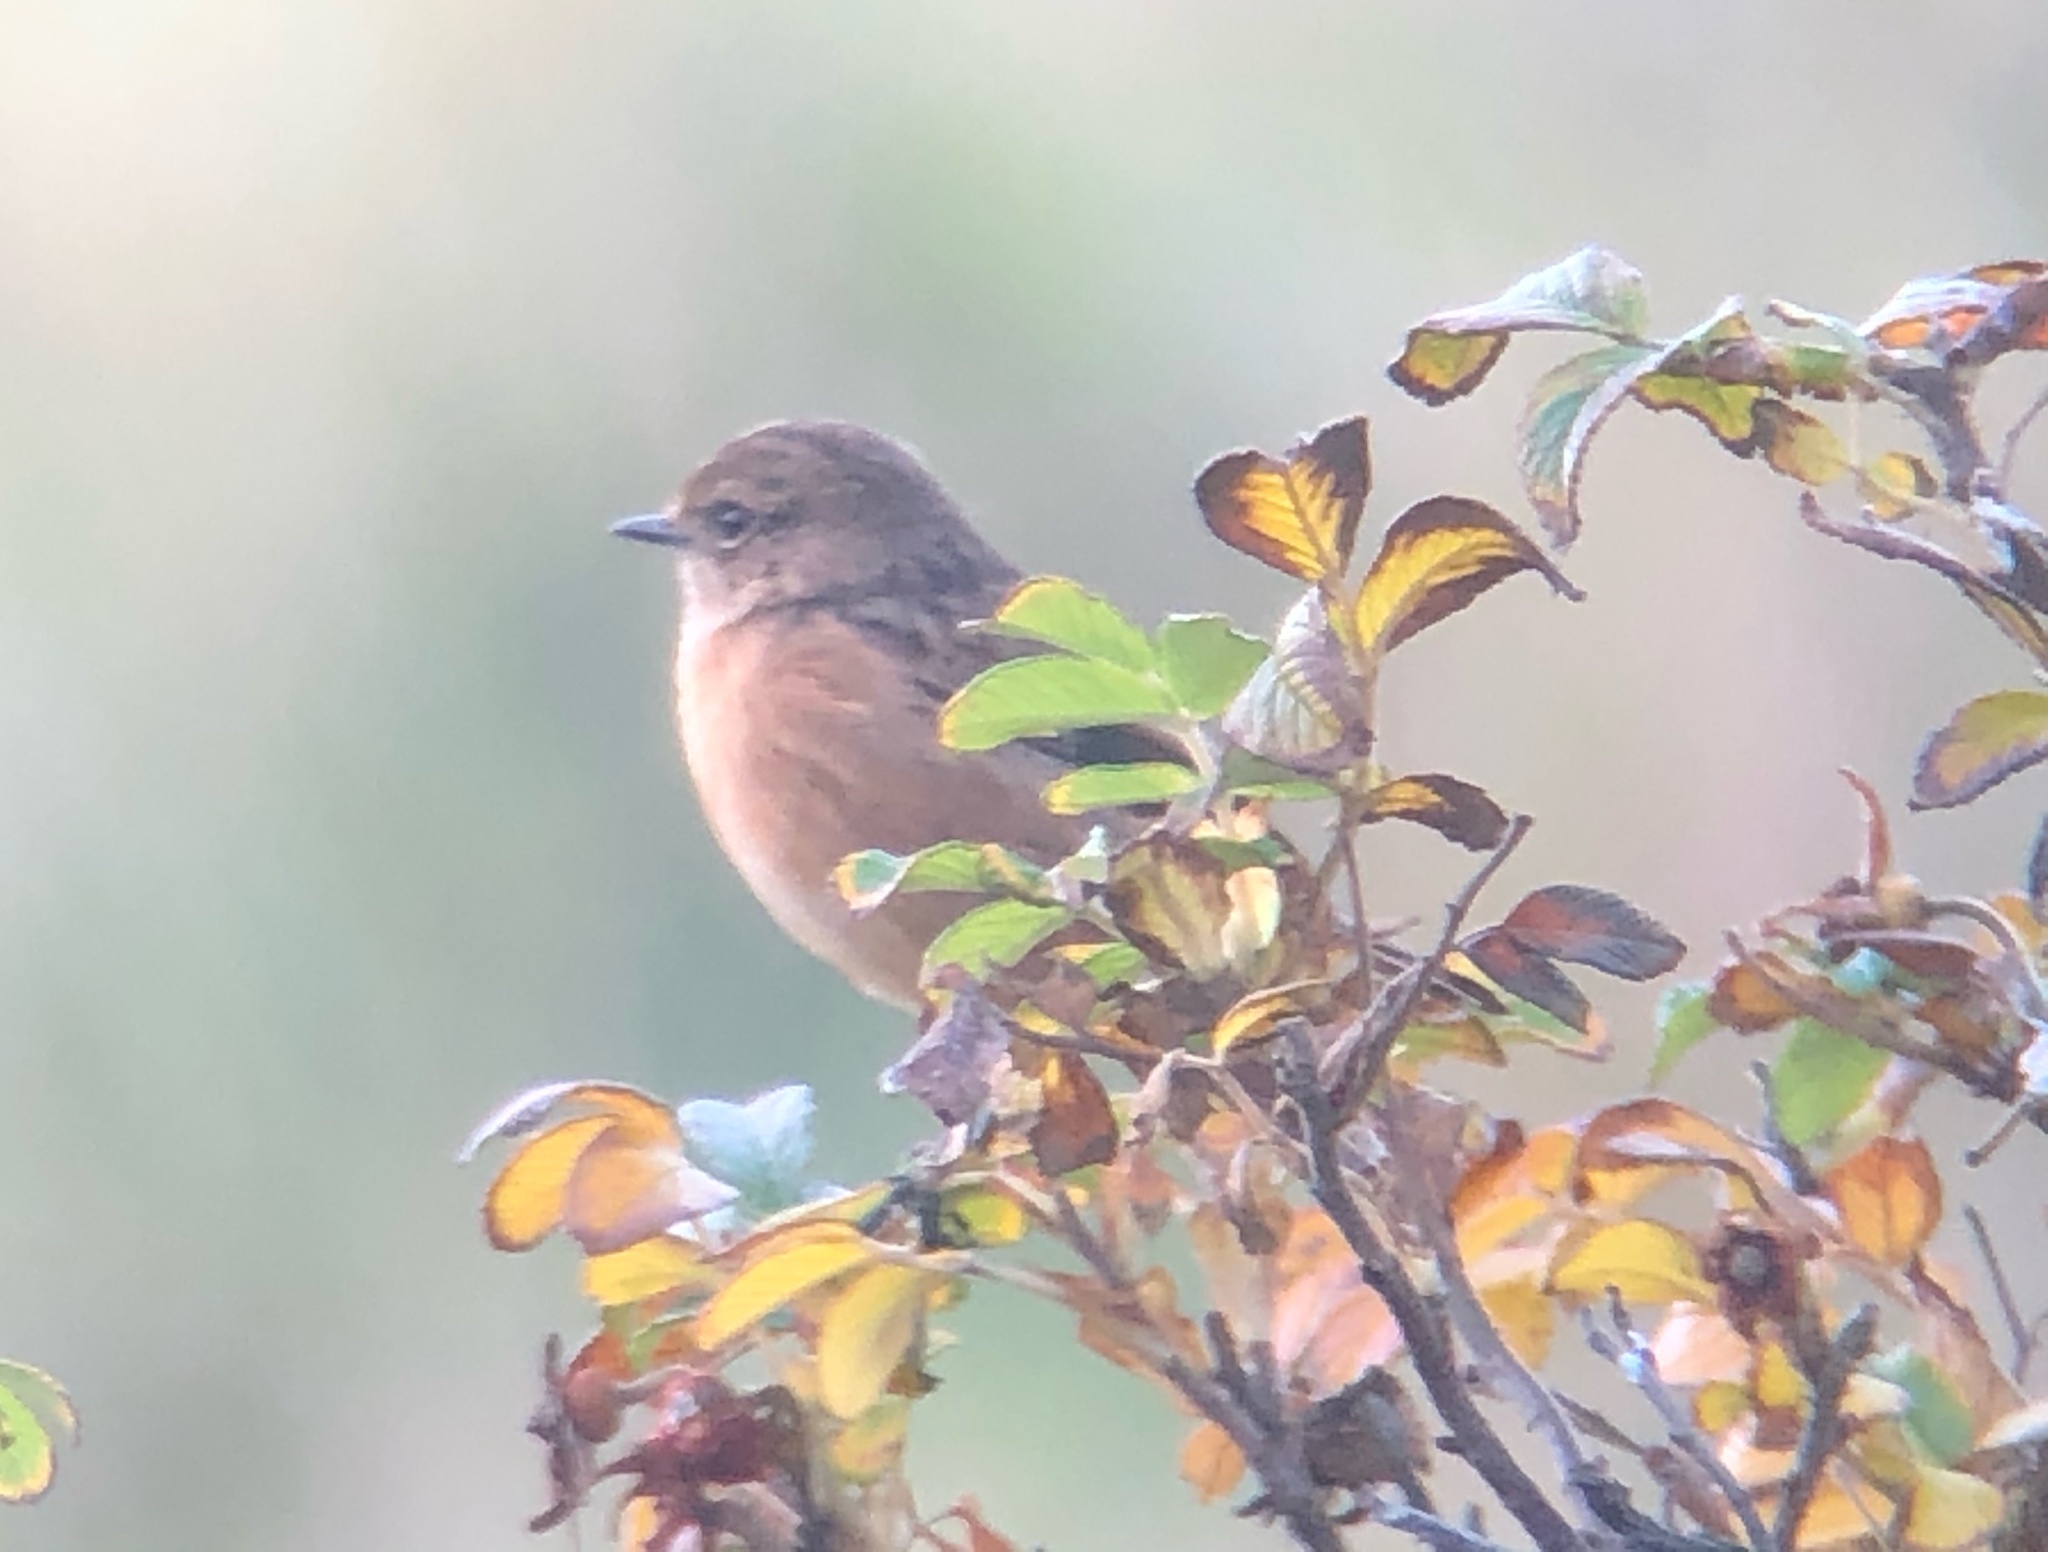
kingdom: Animalia
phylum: Chordata
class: Aves
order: Passeriformes
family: Muscicapidae
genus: Saxicola
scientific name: Saxicola rubicola
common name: European stonechat
